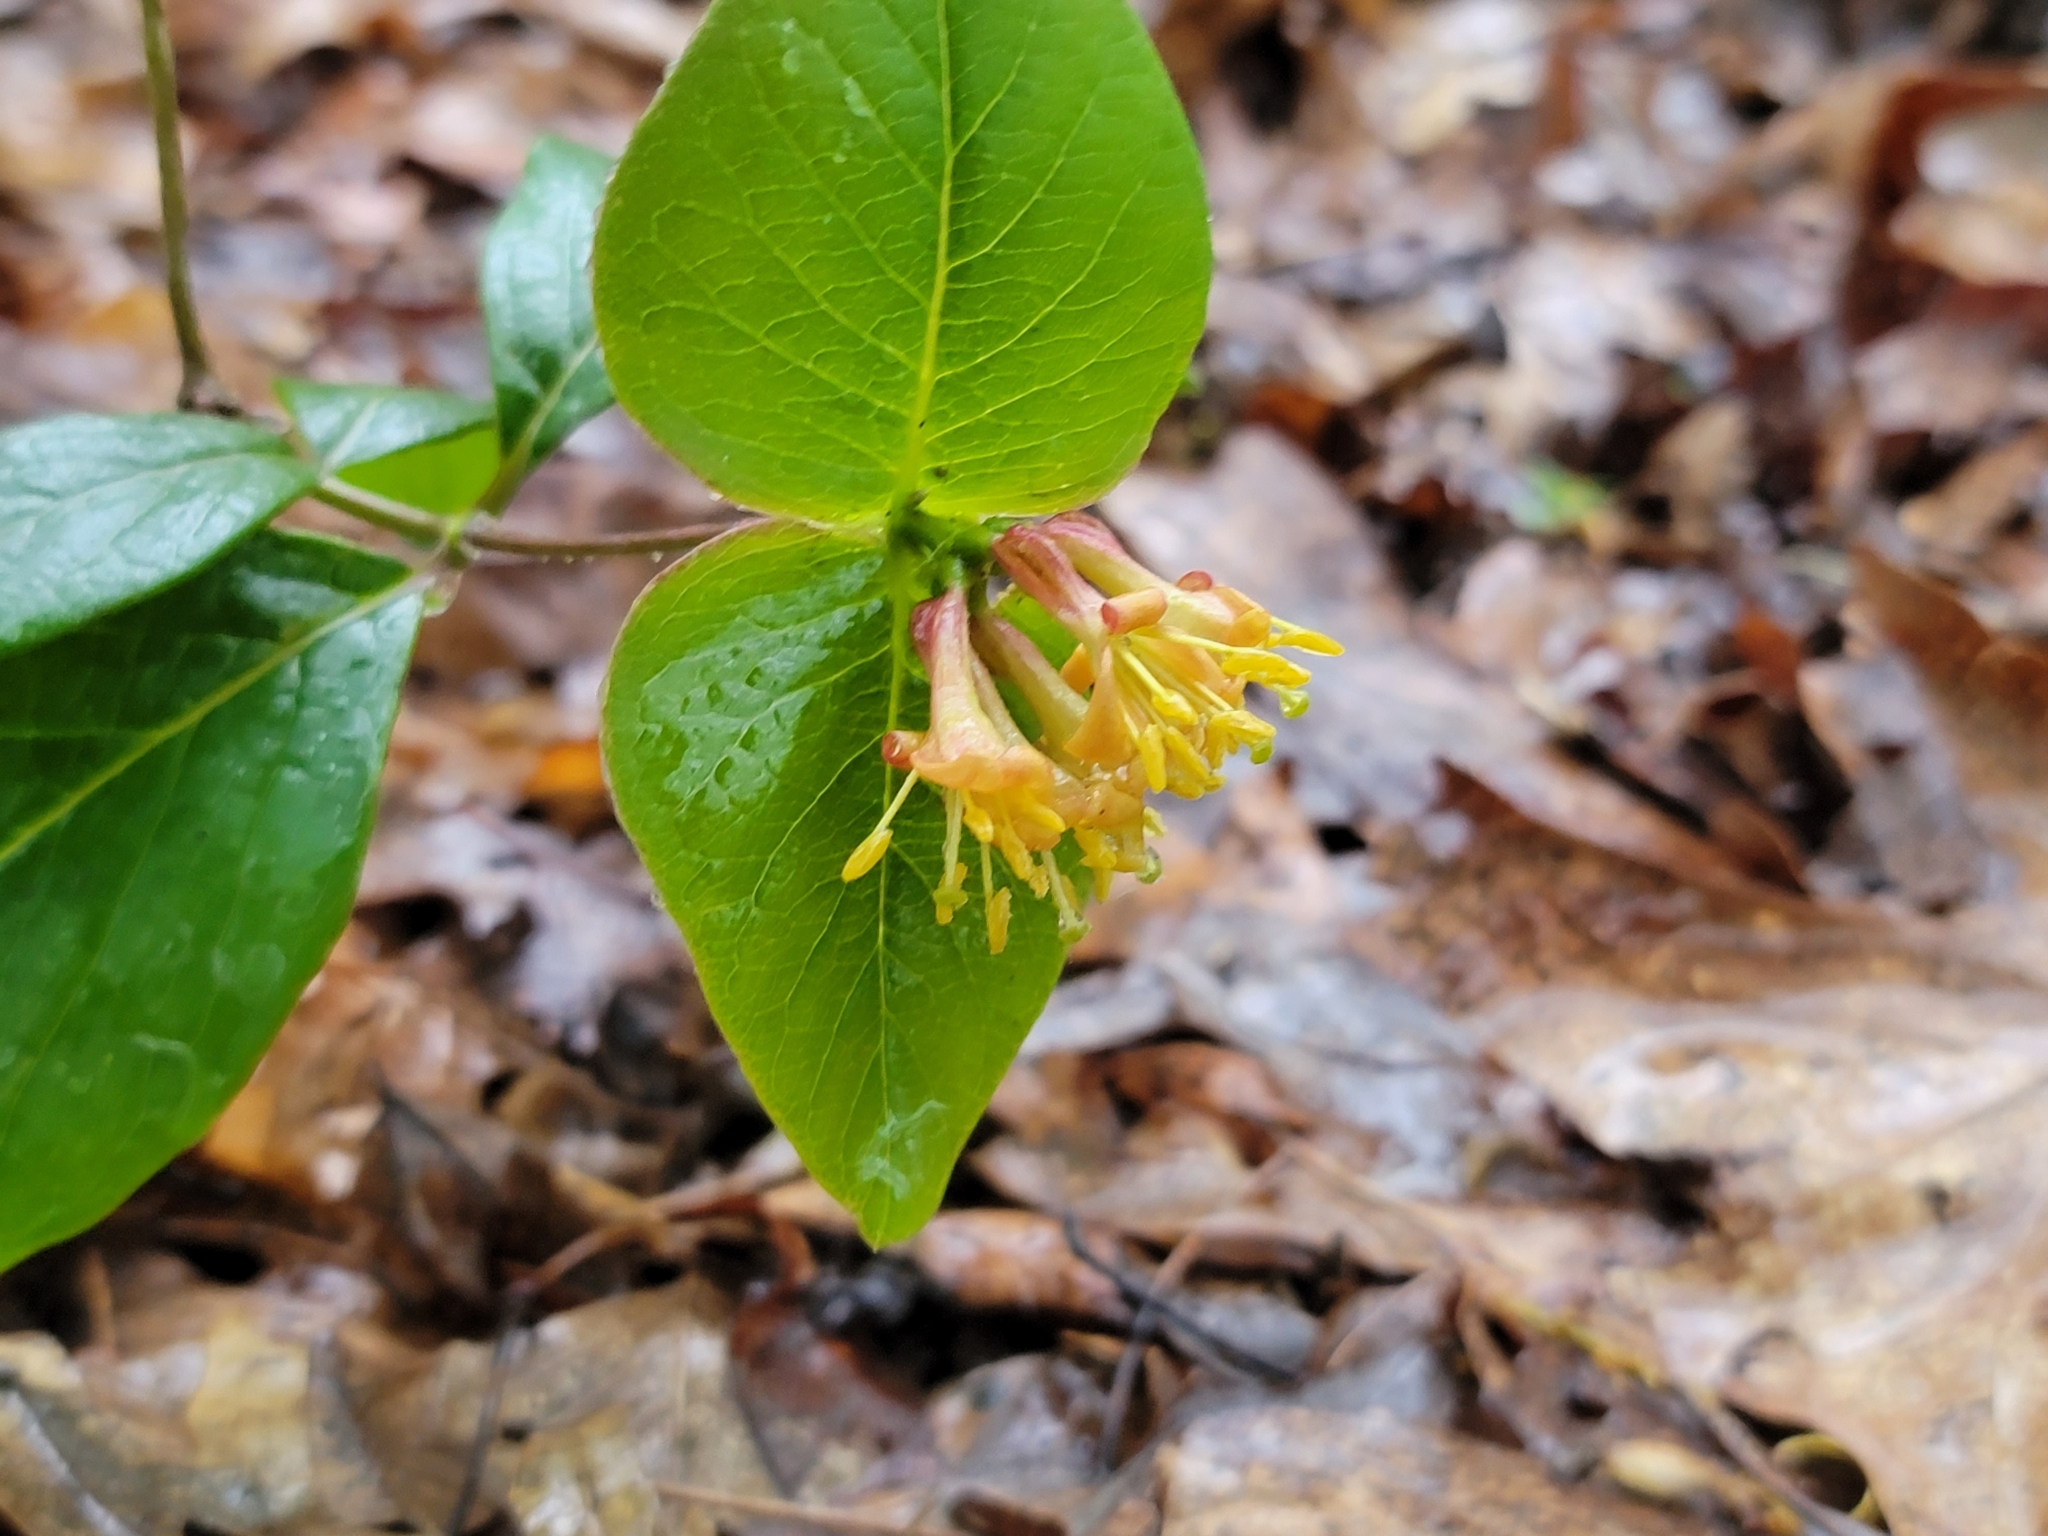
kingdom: Plantae
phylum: Tracheophyta
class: Magnoliopsida
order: Dipsacales
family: Caprifoliaceae
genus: Lonicera
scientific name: Lonicera dioica
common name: Limber honeysuckle
